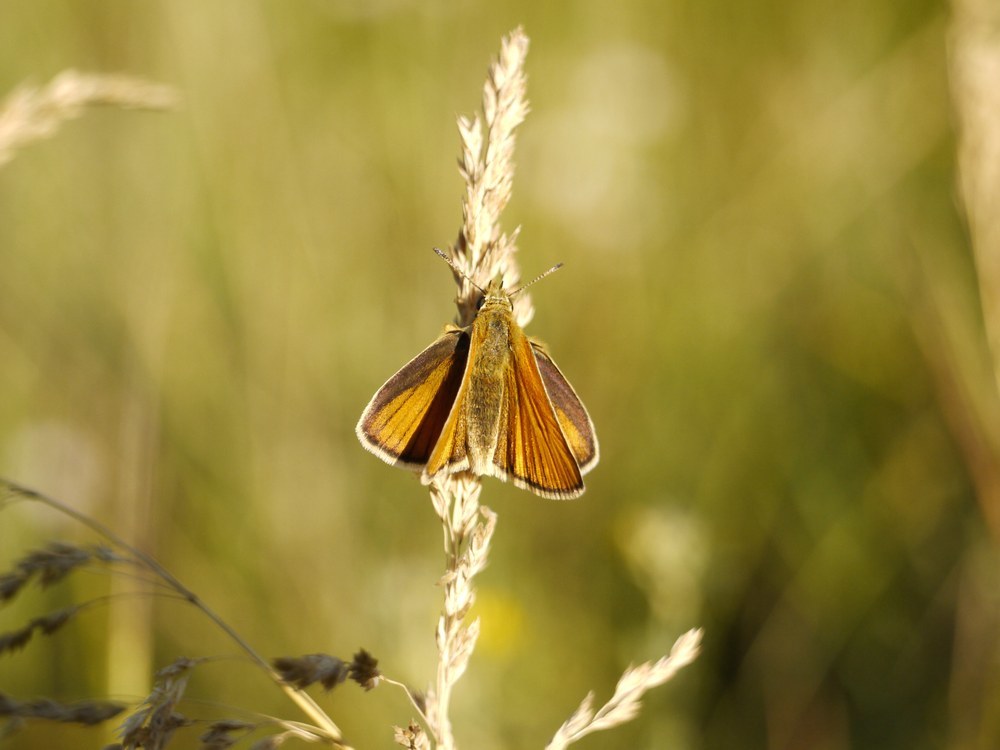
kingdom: Animalia
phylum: Arthropoda
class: Insecta
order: Lepidoptera
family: Hesperiidae
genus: Thymelicus
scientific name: Thymelicus lineola
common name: Essex skipper
